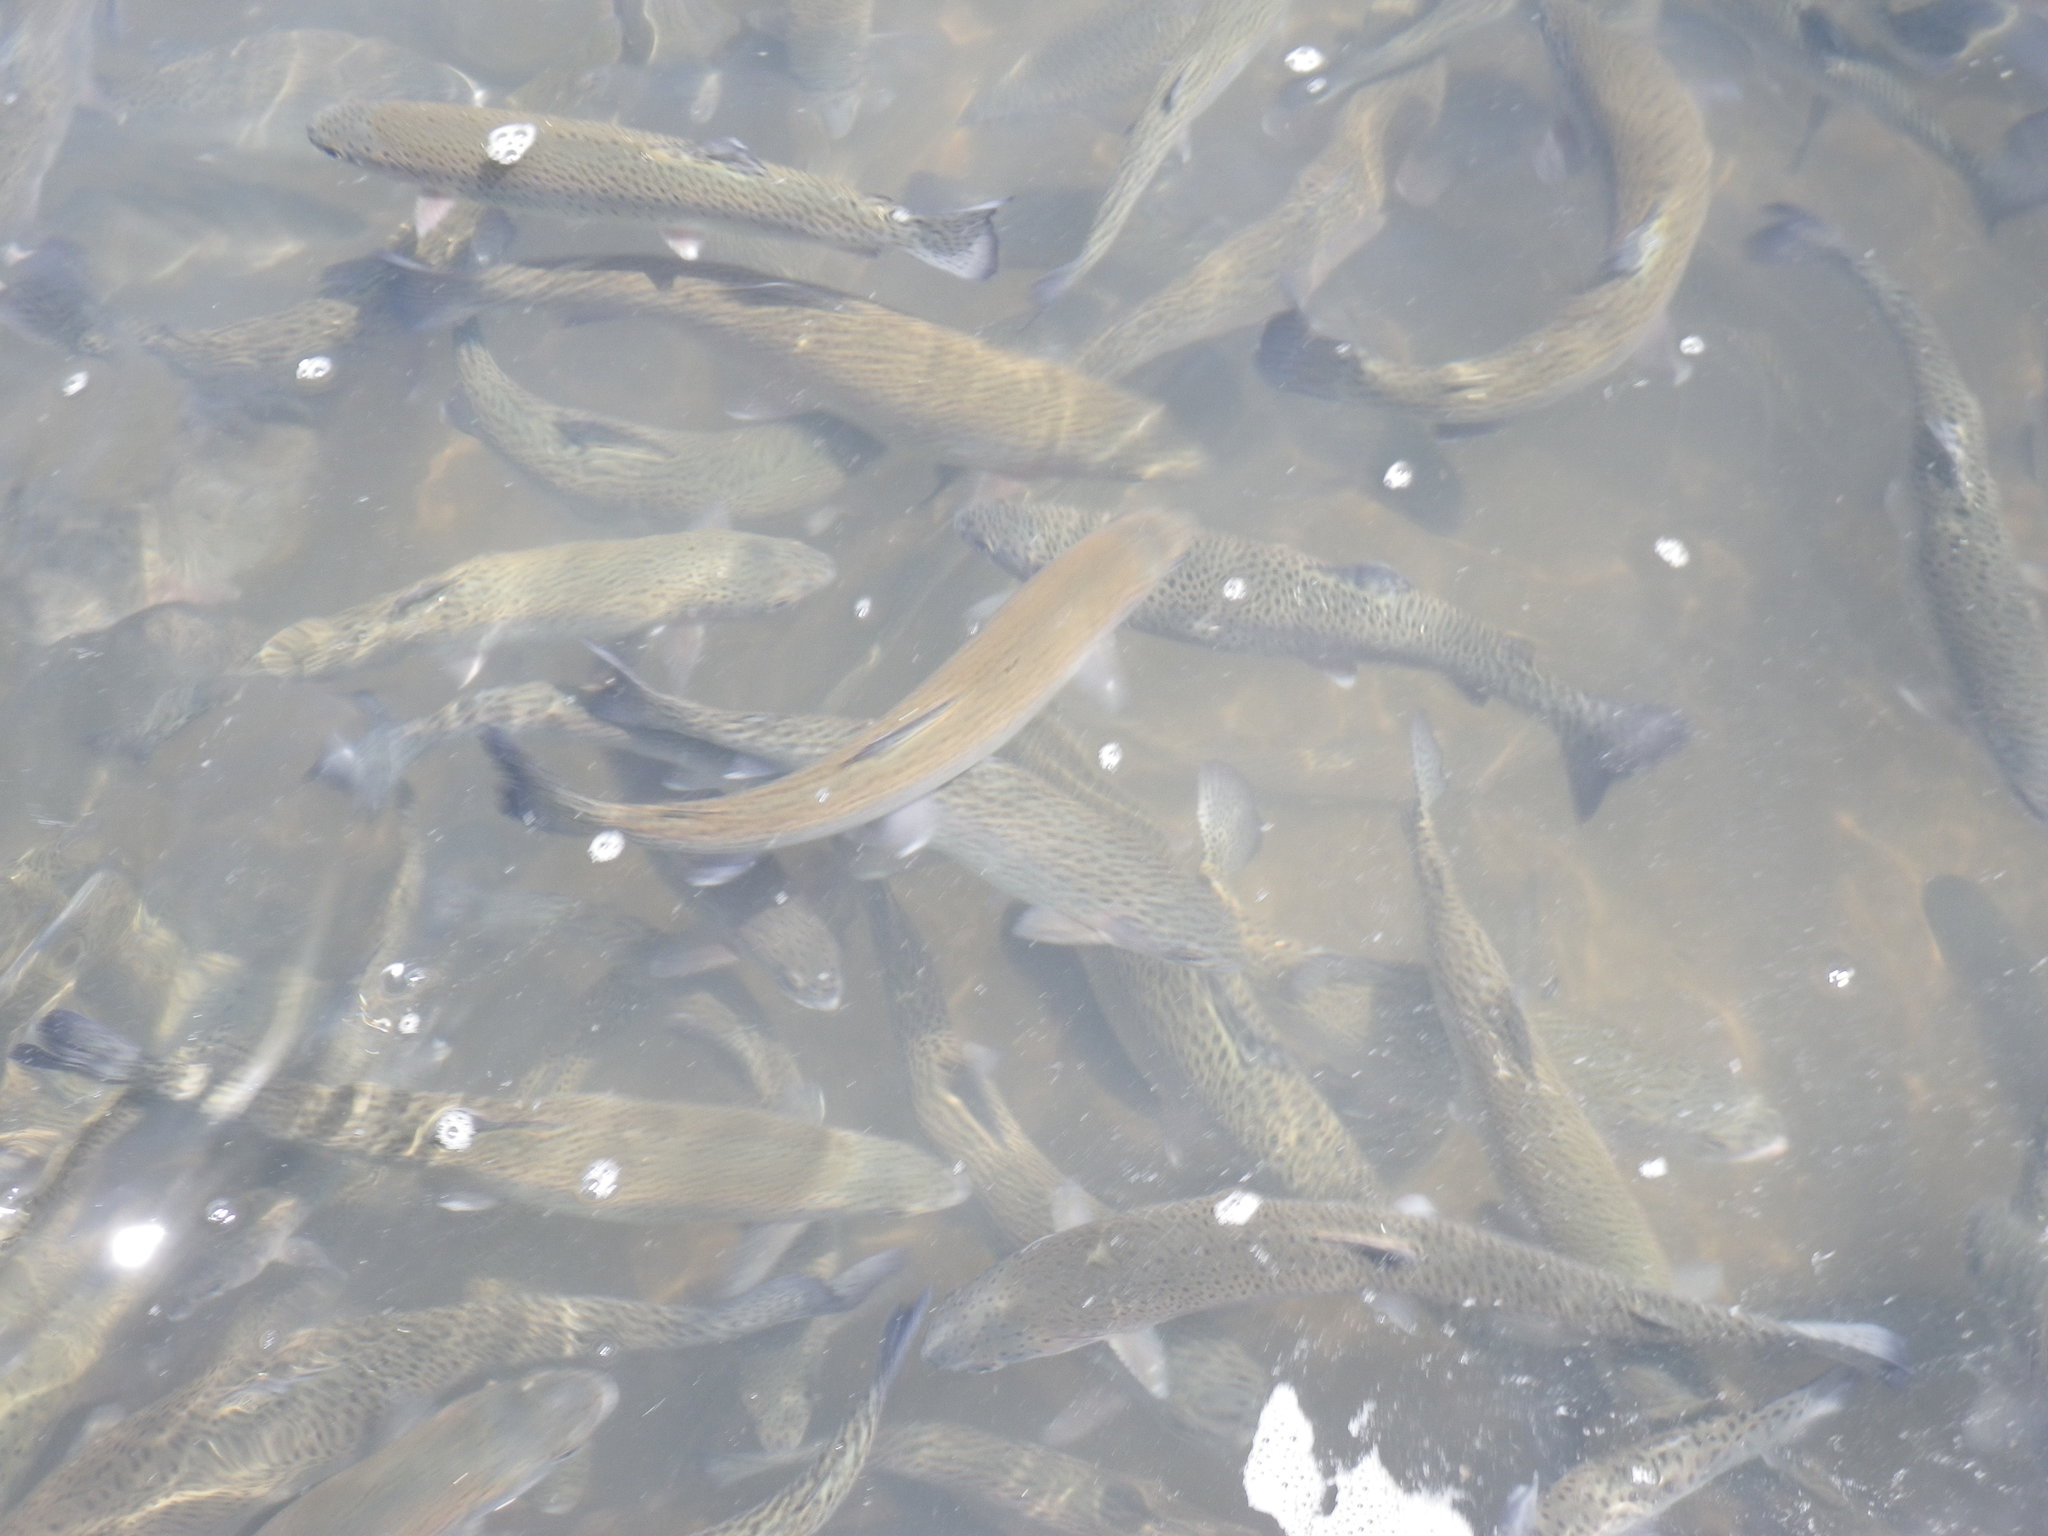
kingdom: Animalia
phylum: Chordata
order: Salmoniformes
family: Salmonidae
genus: Oncorhynchus
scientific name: Oncorhynchus mykiss
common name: Rainbow trout
